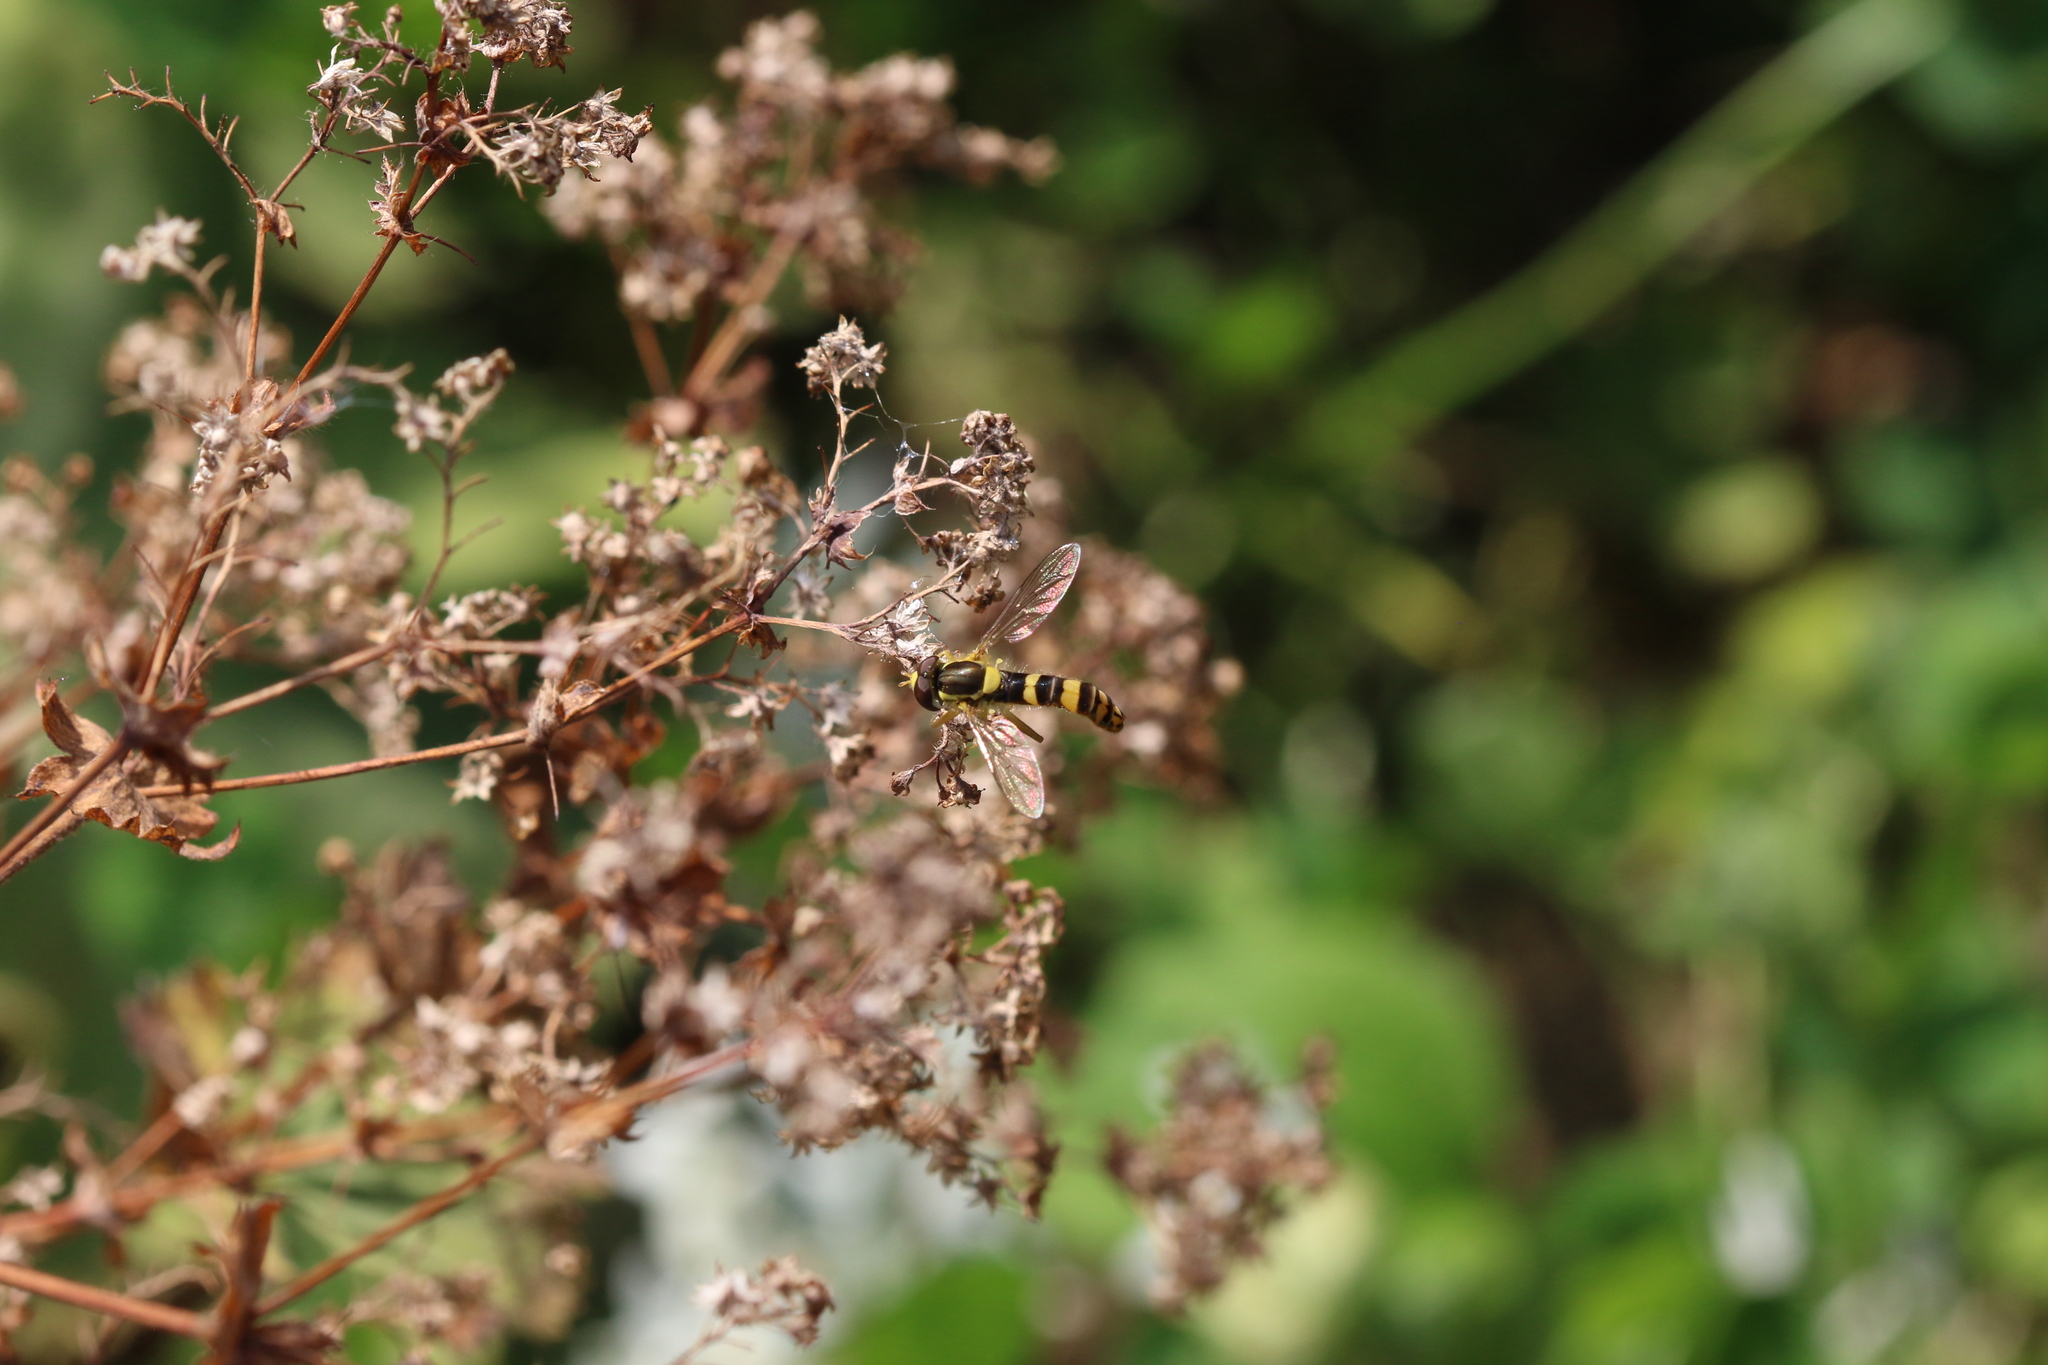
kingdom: Animalia
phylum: Arthropoda
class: Insecta
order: Diptera
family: Syrphidae
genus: Sphaerophoria
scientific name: Sphaerophoria
